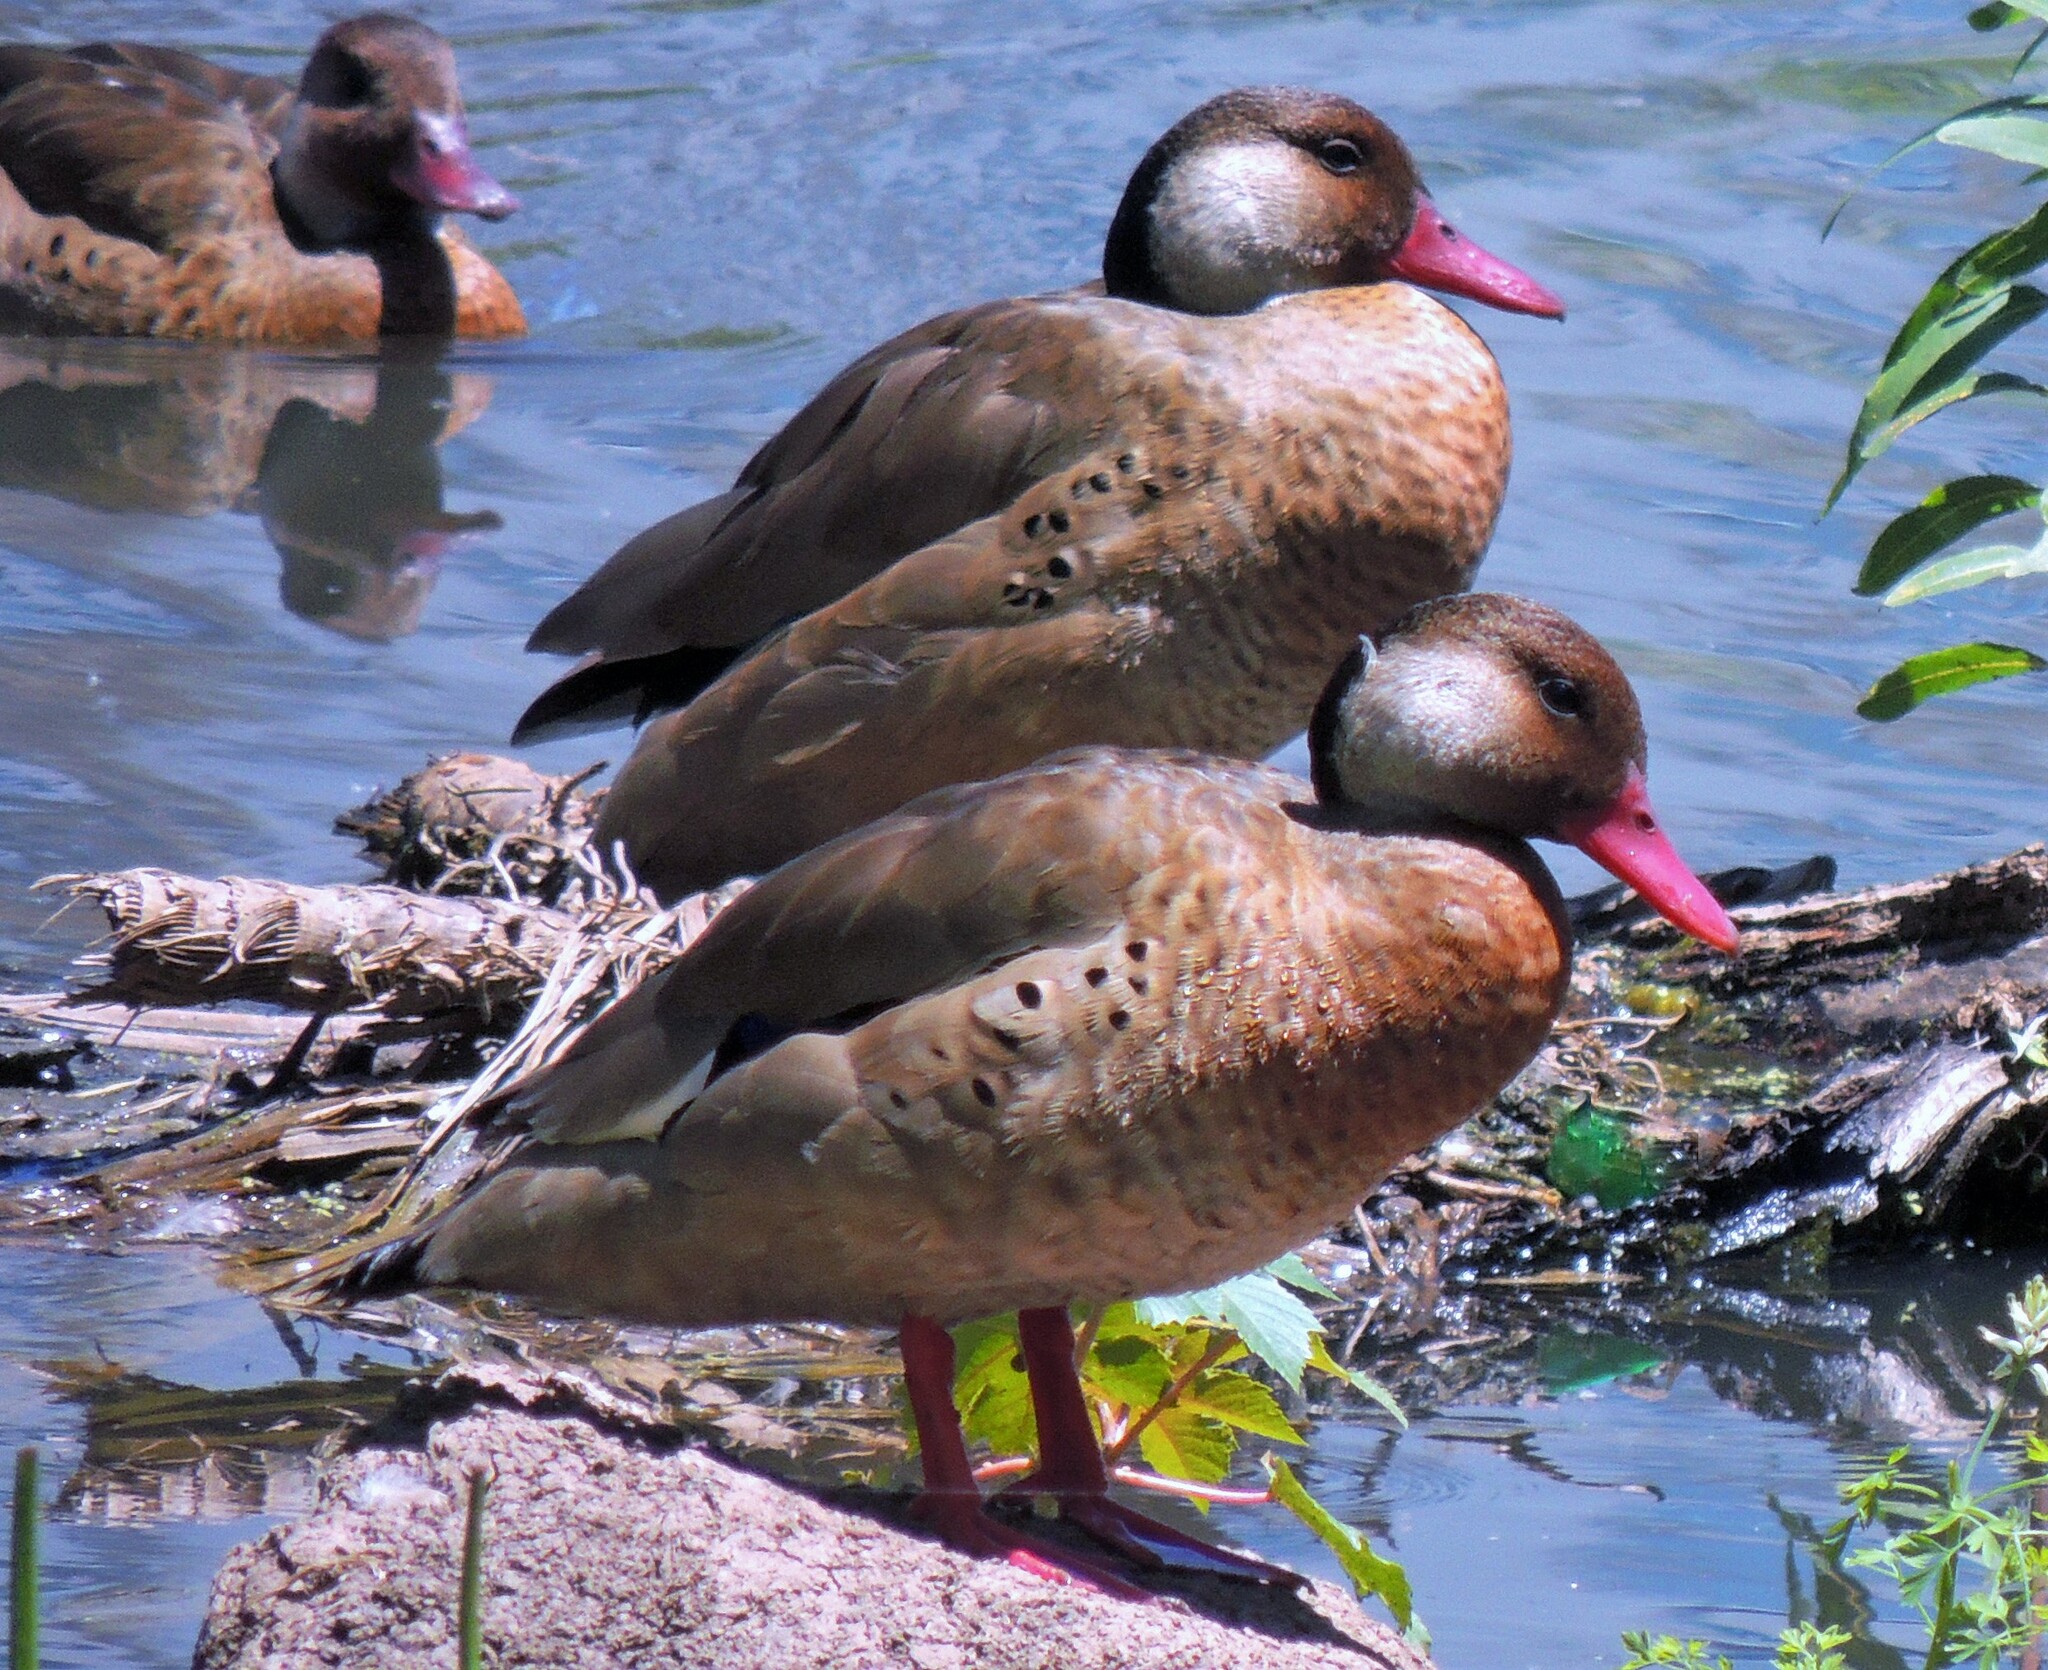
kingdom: Animalia
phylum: Chordata
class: Aves
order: Anseriformes
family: Anatidae
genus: Amazonetta
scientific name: Amazonetta brasiliensis
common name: Brazilian teal
